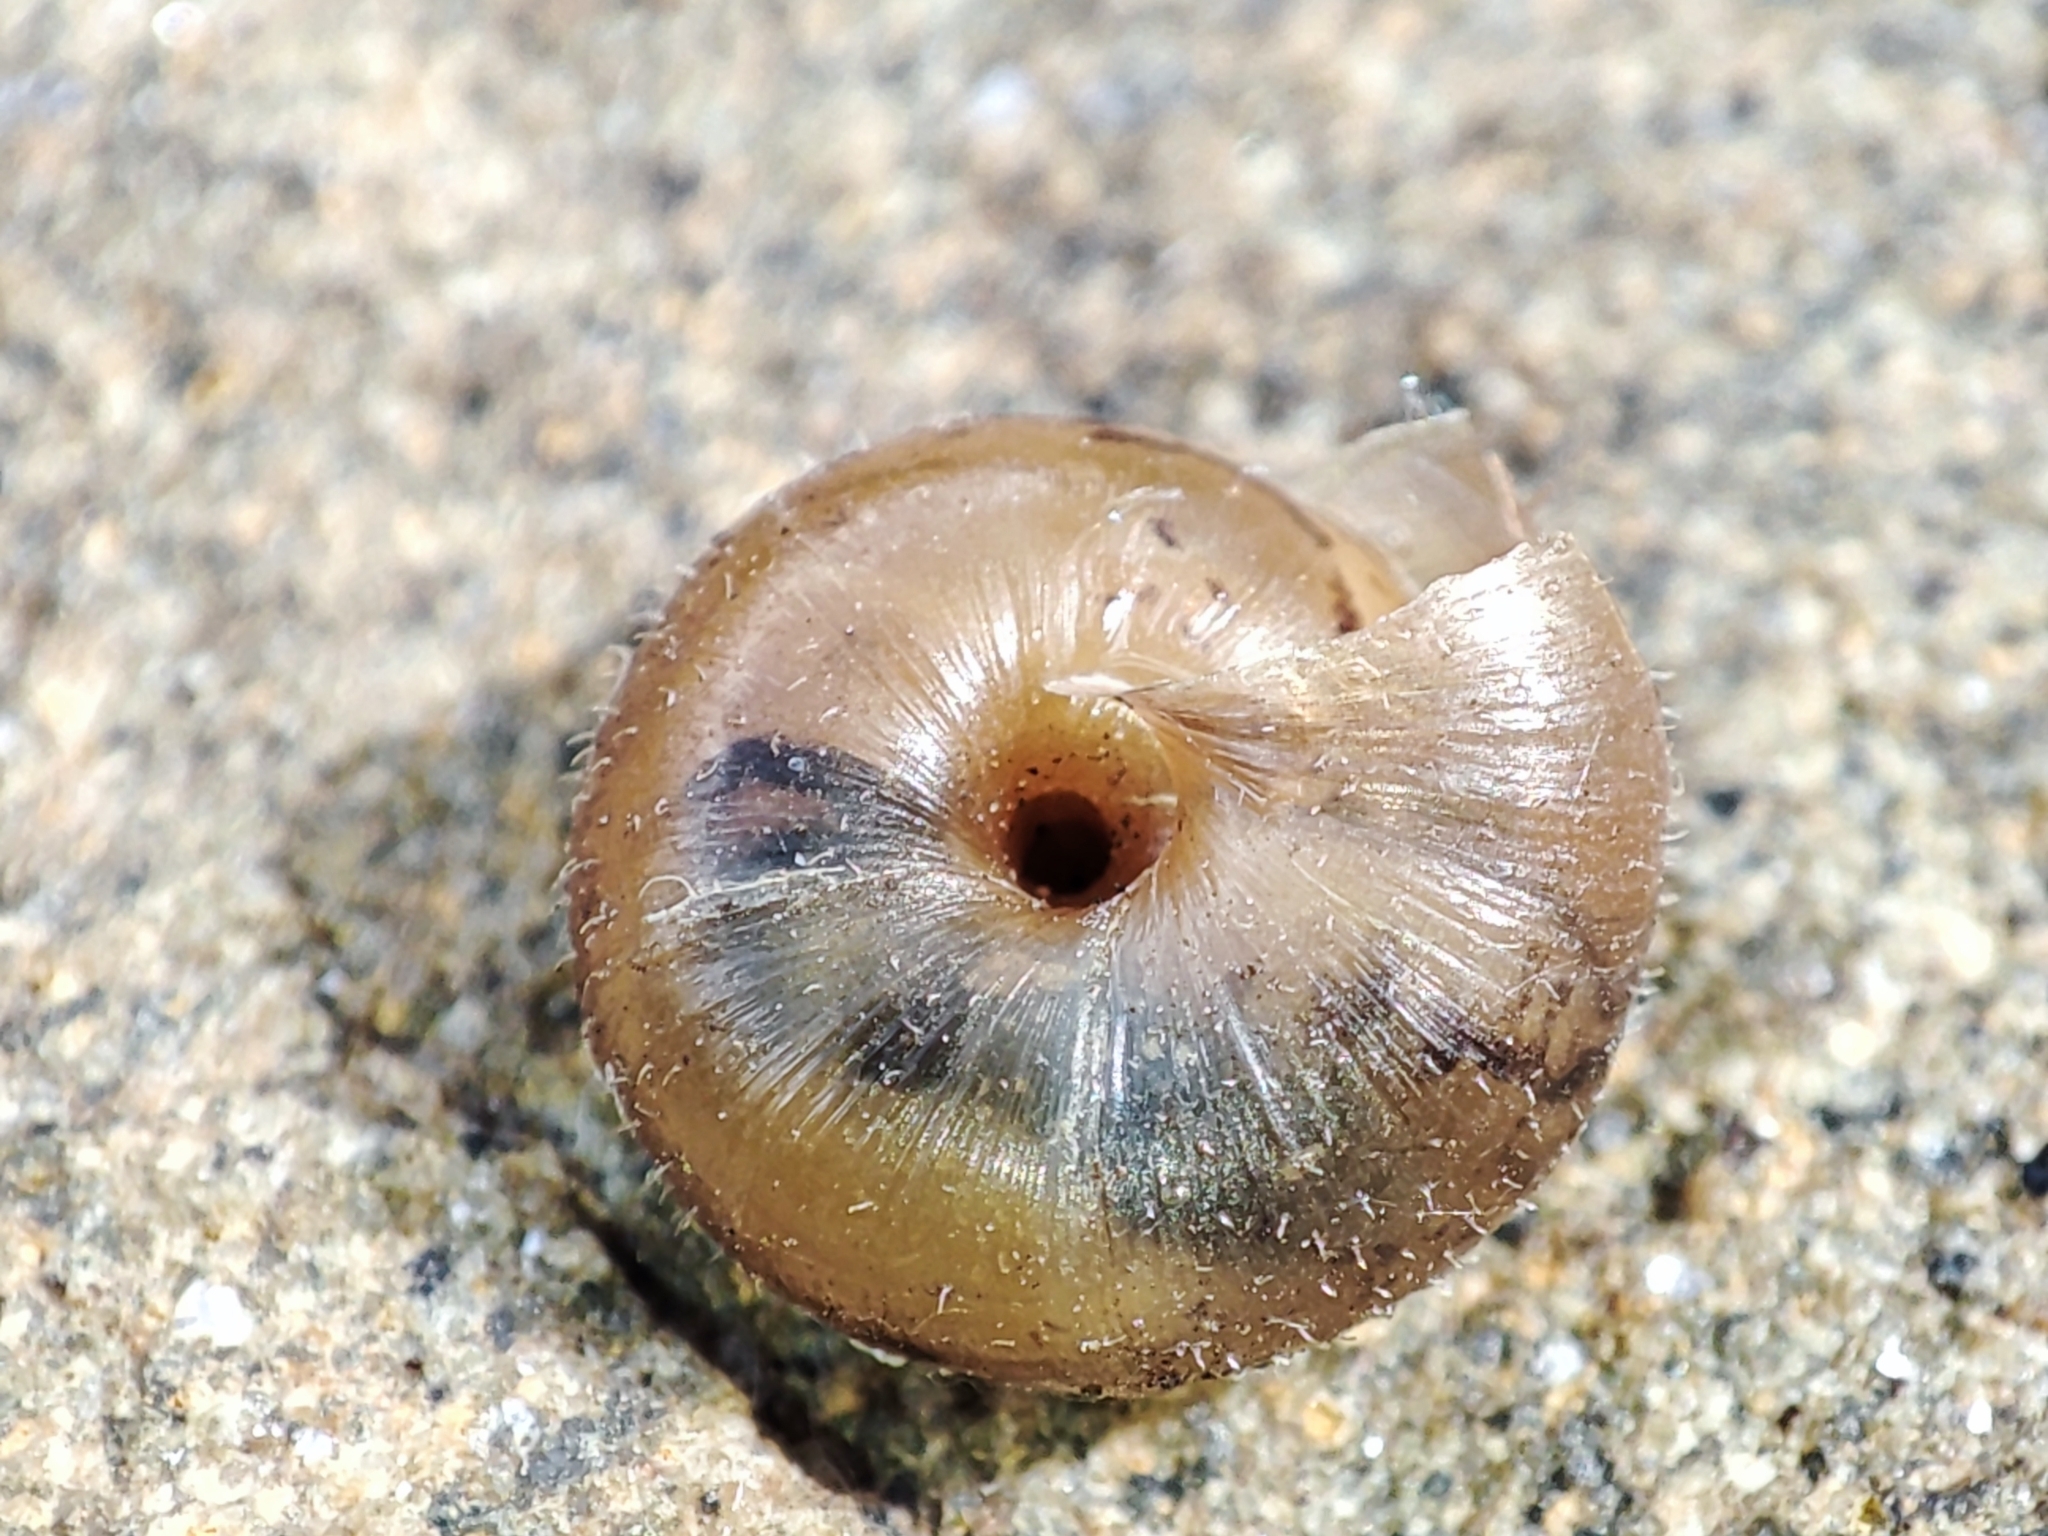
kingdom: Animalia
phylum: Mollusca
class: Gastropoda
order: Stylommatophora
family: Hygromiidae
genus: Trochulus
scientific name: Trochulus hispidus
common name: Hairy snail
